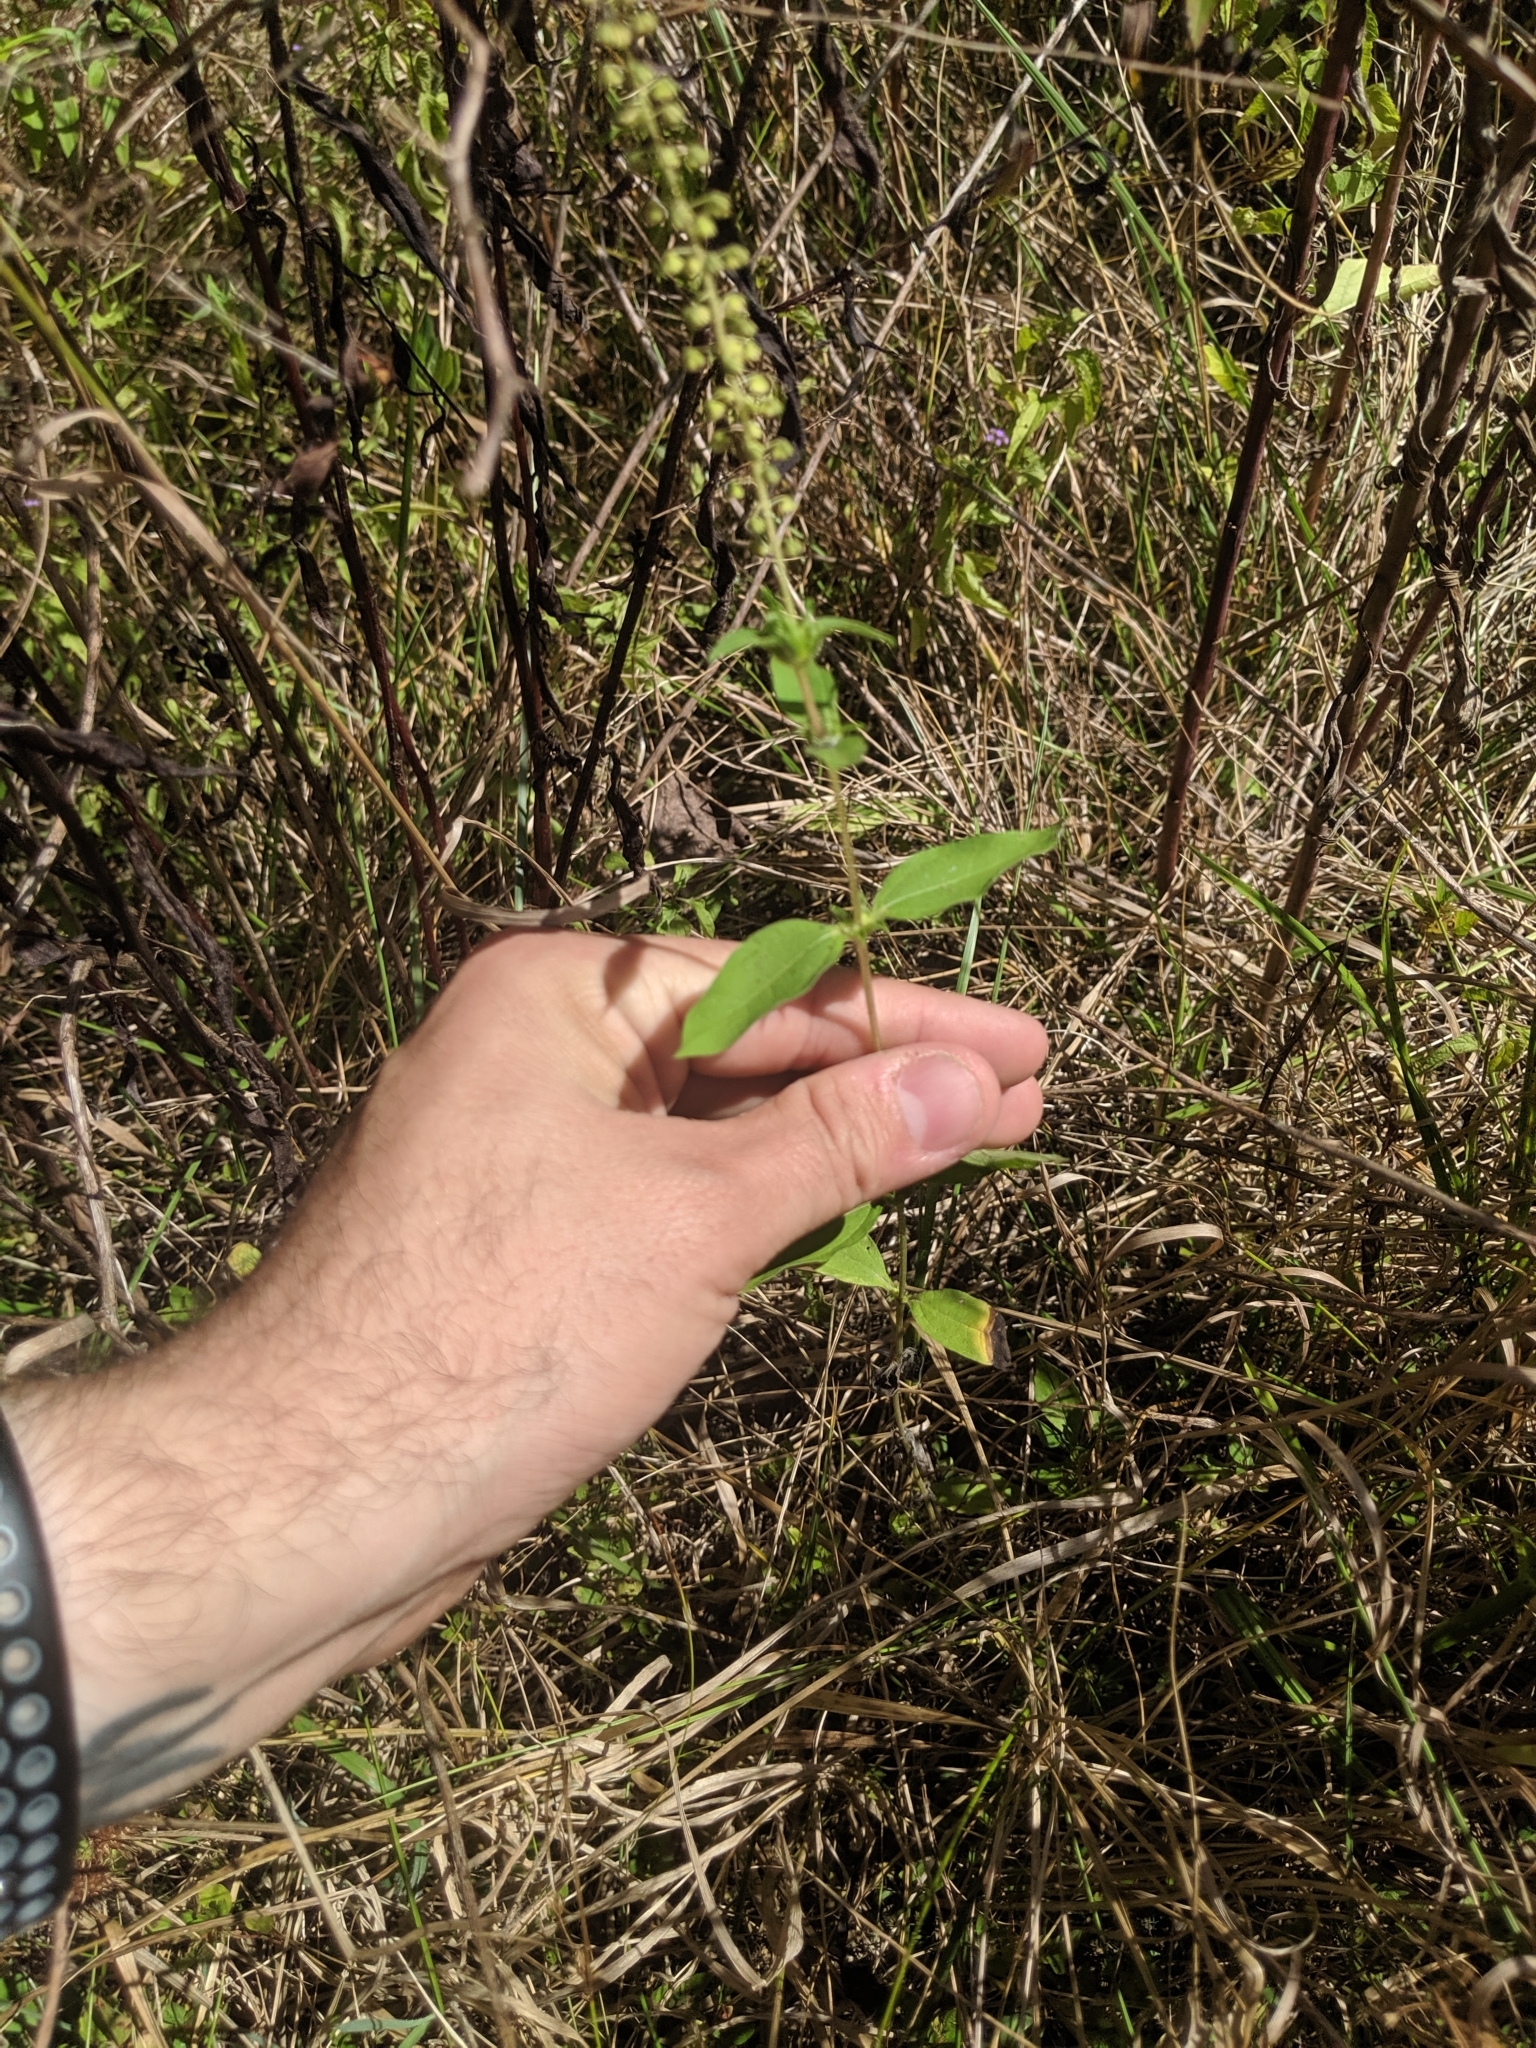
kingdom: Plantae
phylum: Tracheophyta
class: Magnoliopsida
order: Asterales
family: Asteraceae
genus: Ambrosia
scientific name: Ambrosia trifida
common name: Giant ragweed
